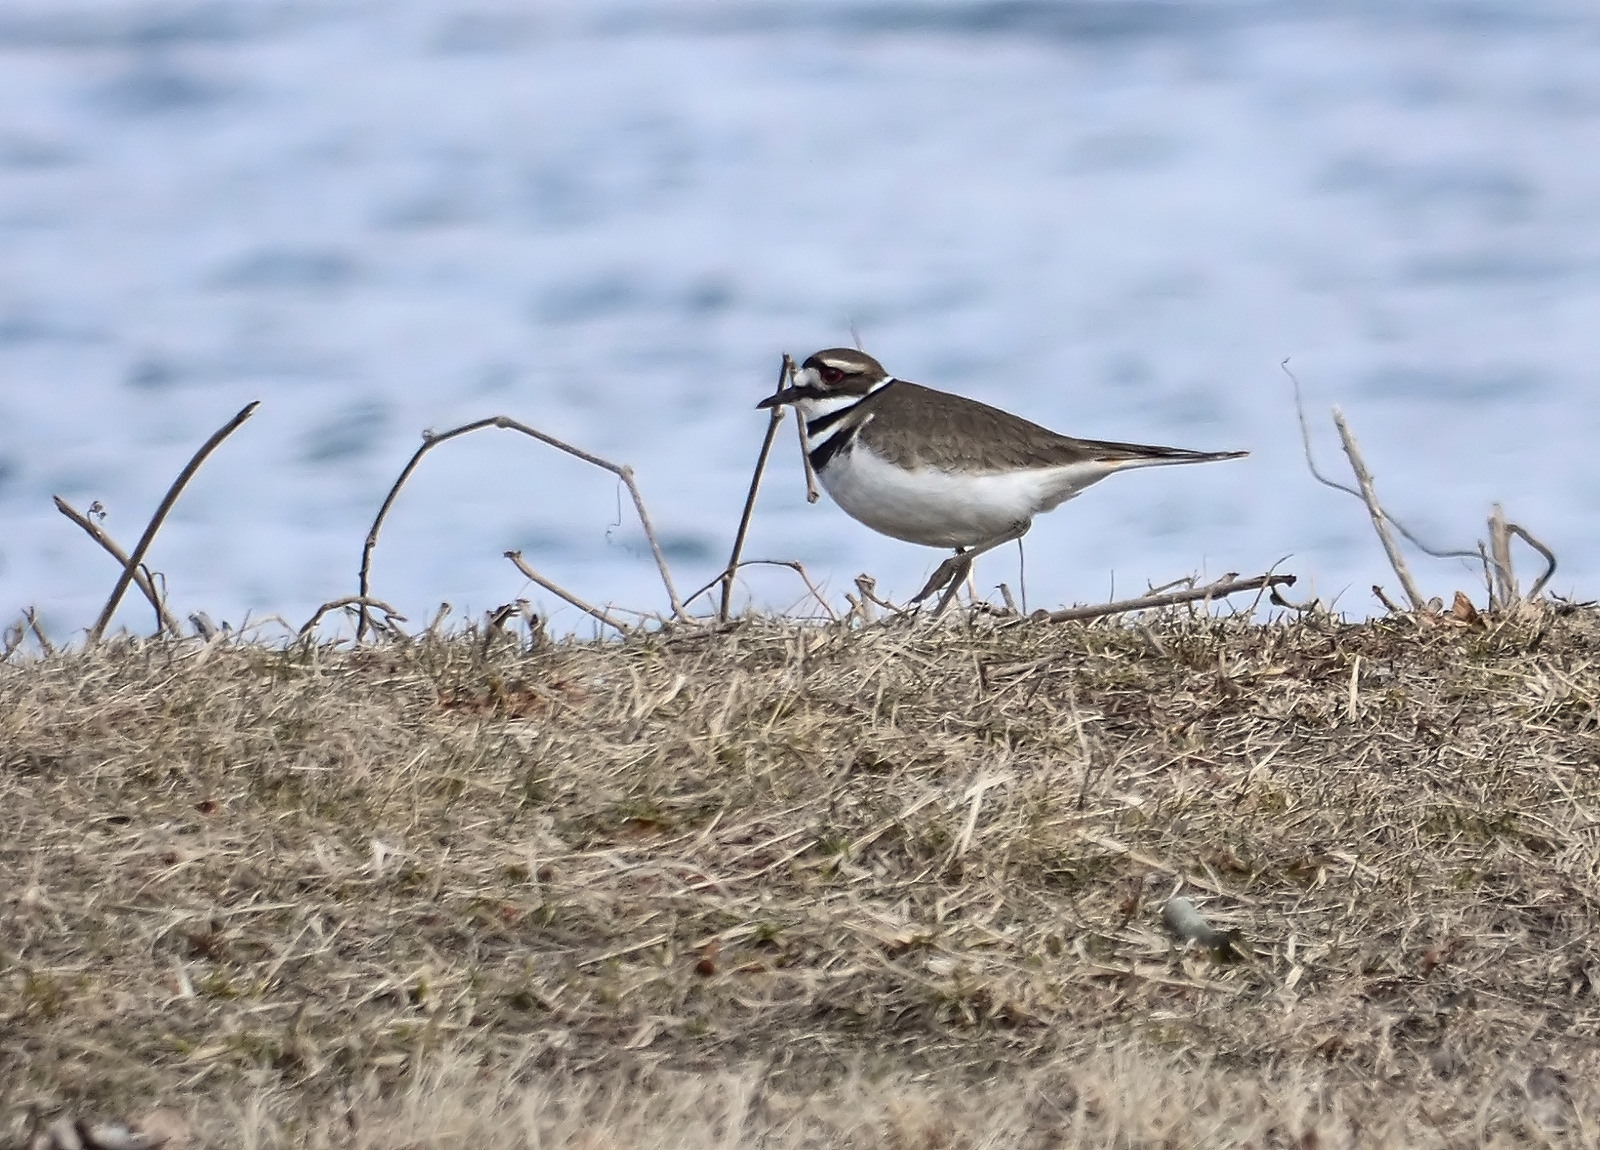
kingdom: Animalia
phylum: Chordata
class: Aves
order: Charadriiformes
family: Charadriidae
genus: Charadrius
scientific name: Charadrius vociferus
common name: Killdeer
